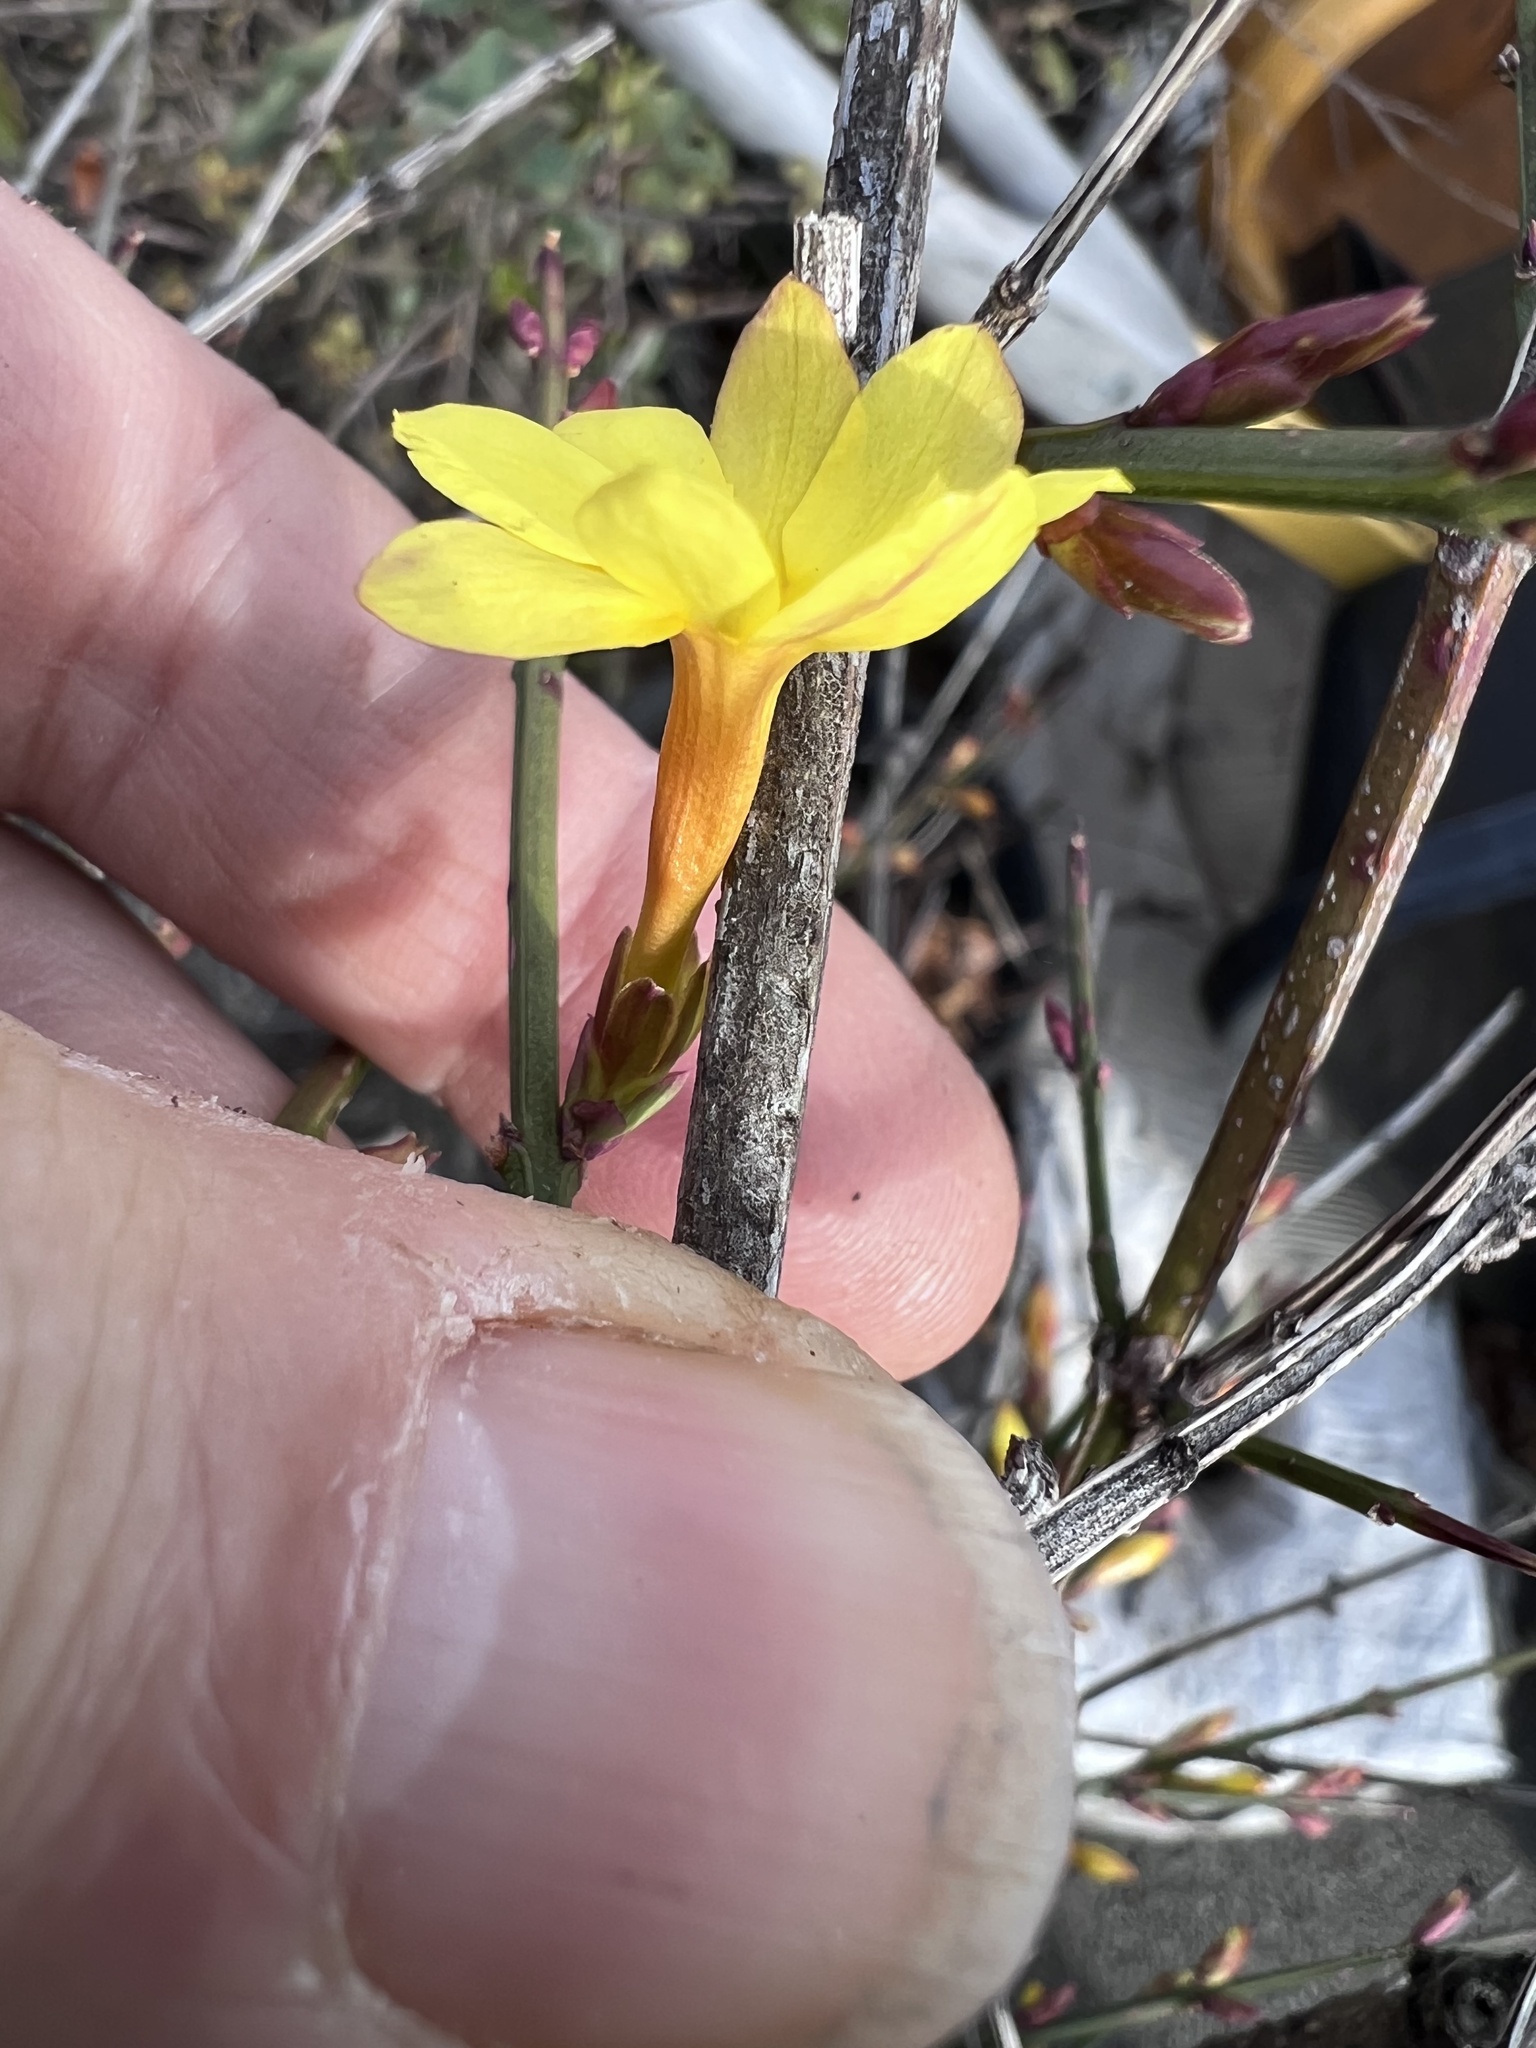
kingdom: Plantae
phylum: Tracheophyta
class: Magnoliopsida
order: Lamiales
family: Oleaceae
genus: Jasminum
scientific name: Jasminum nudiflorum
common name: Winter jasmine
